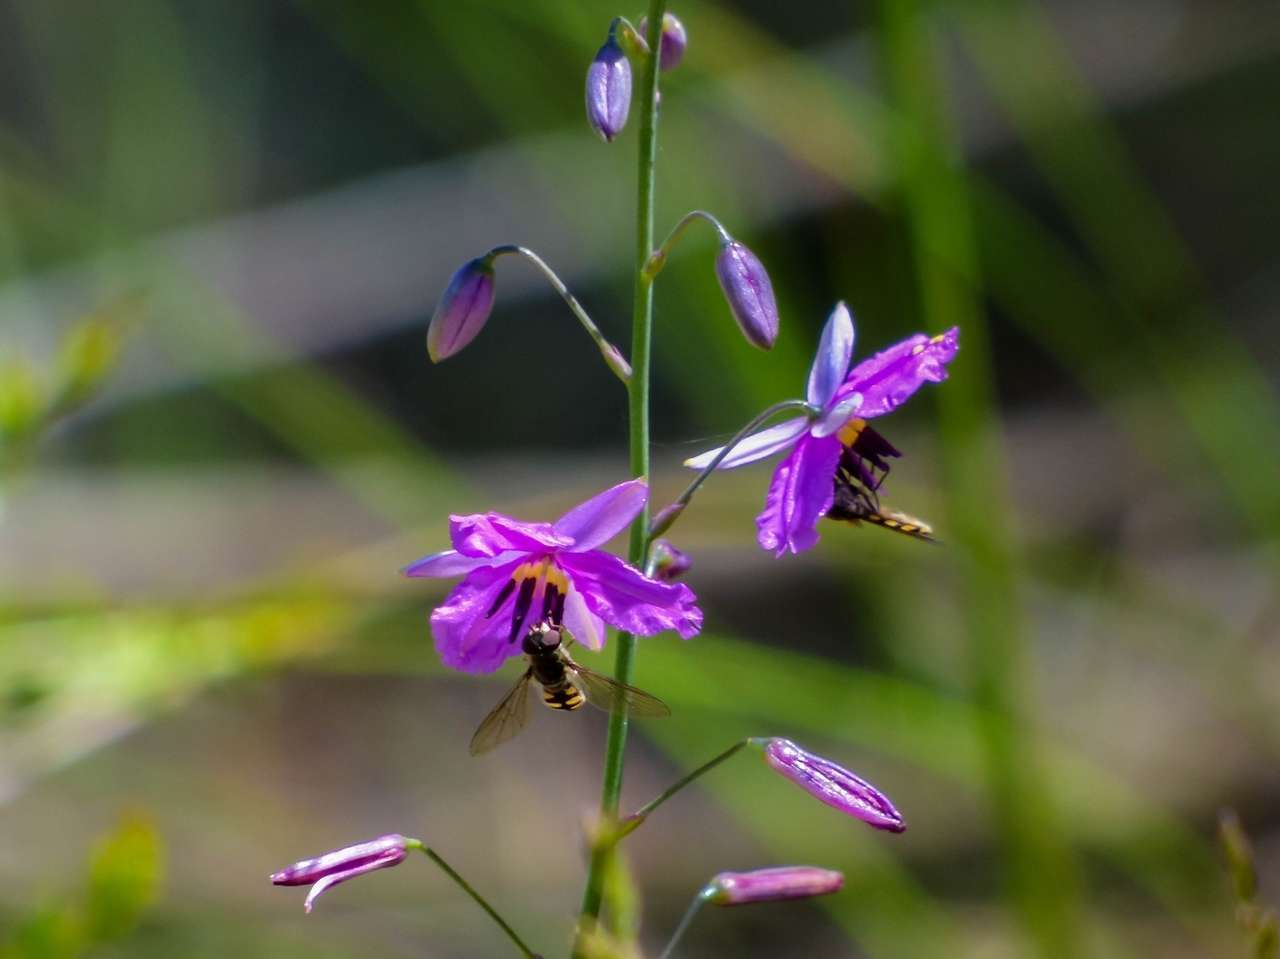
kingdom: Plantae
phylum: Tracheophyta
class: Liliopsida
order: Asparagales
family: Asparagaceae
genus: Arthropodium
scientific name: Arthropodium strictum
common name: Chocolate-lily
